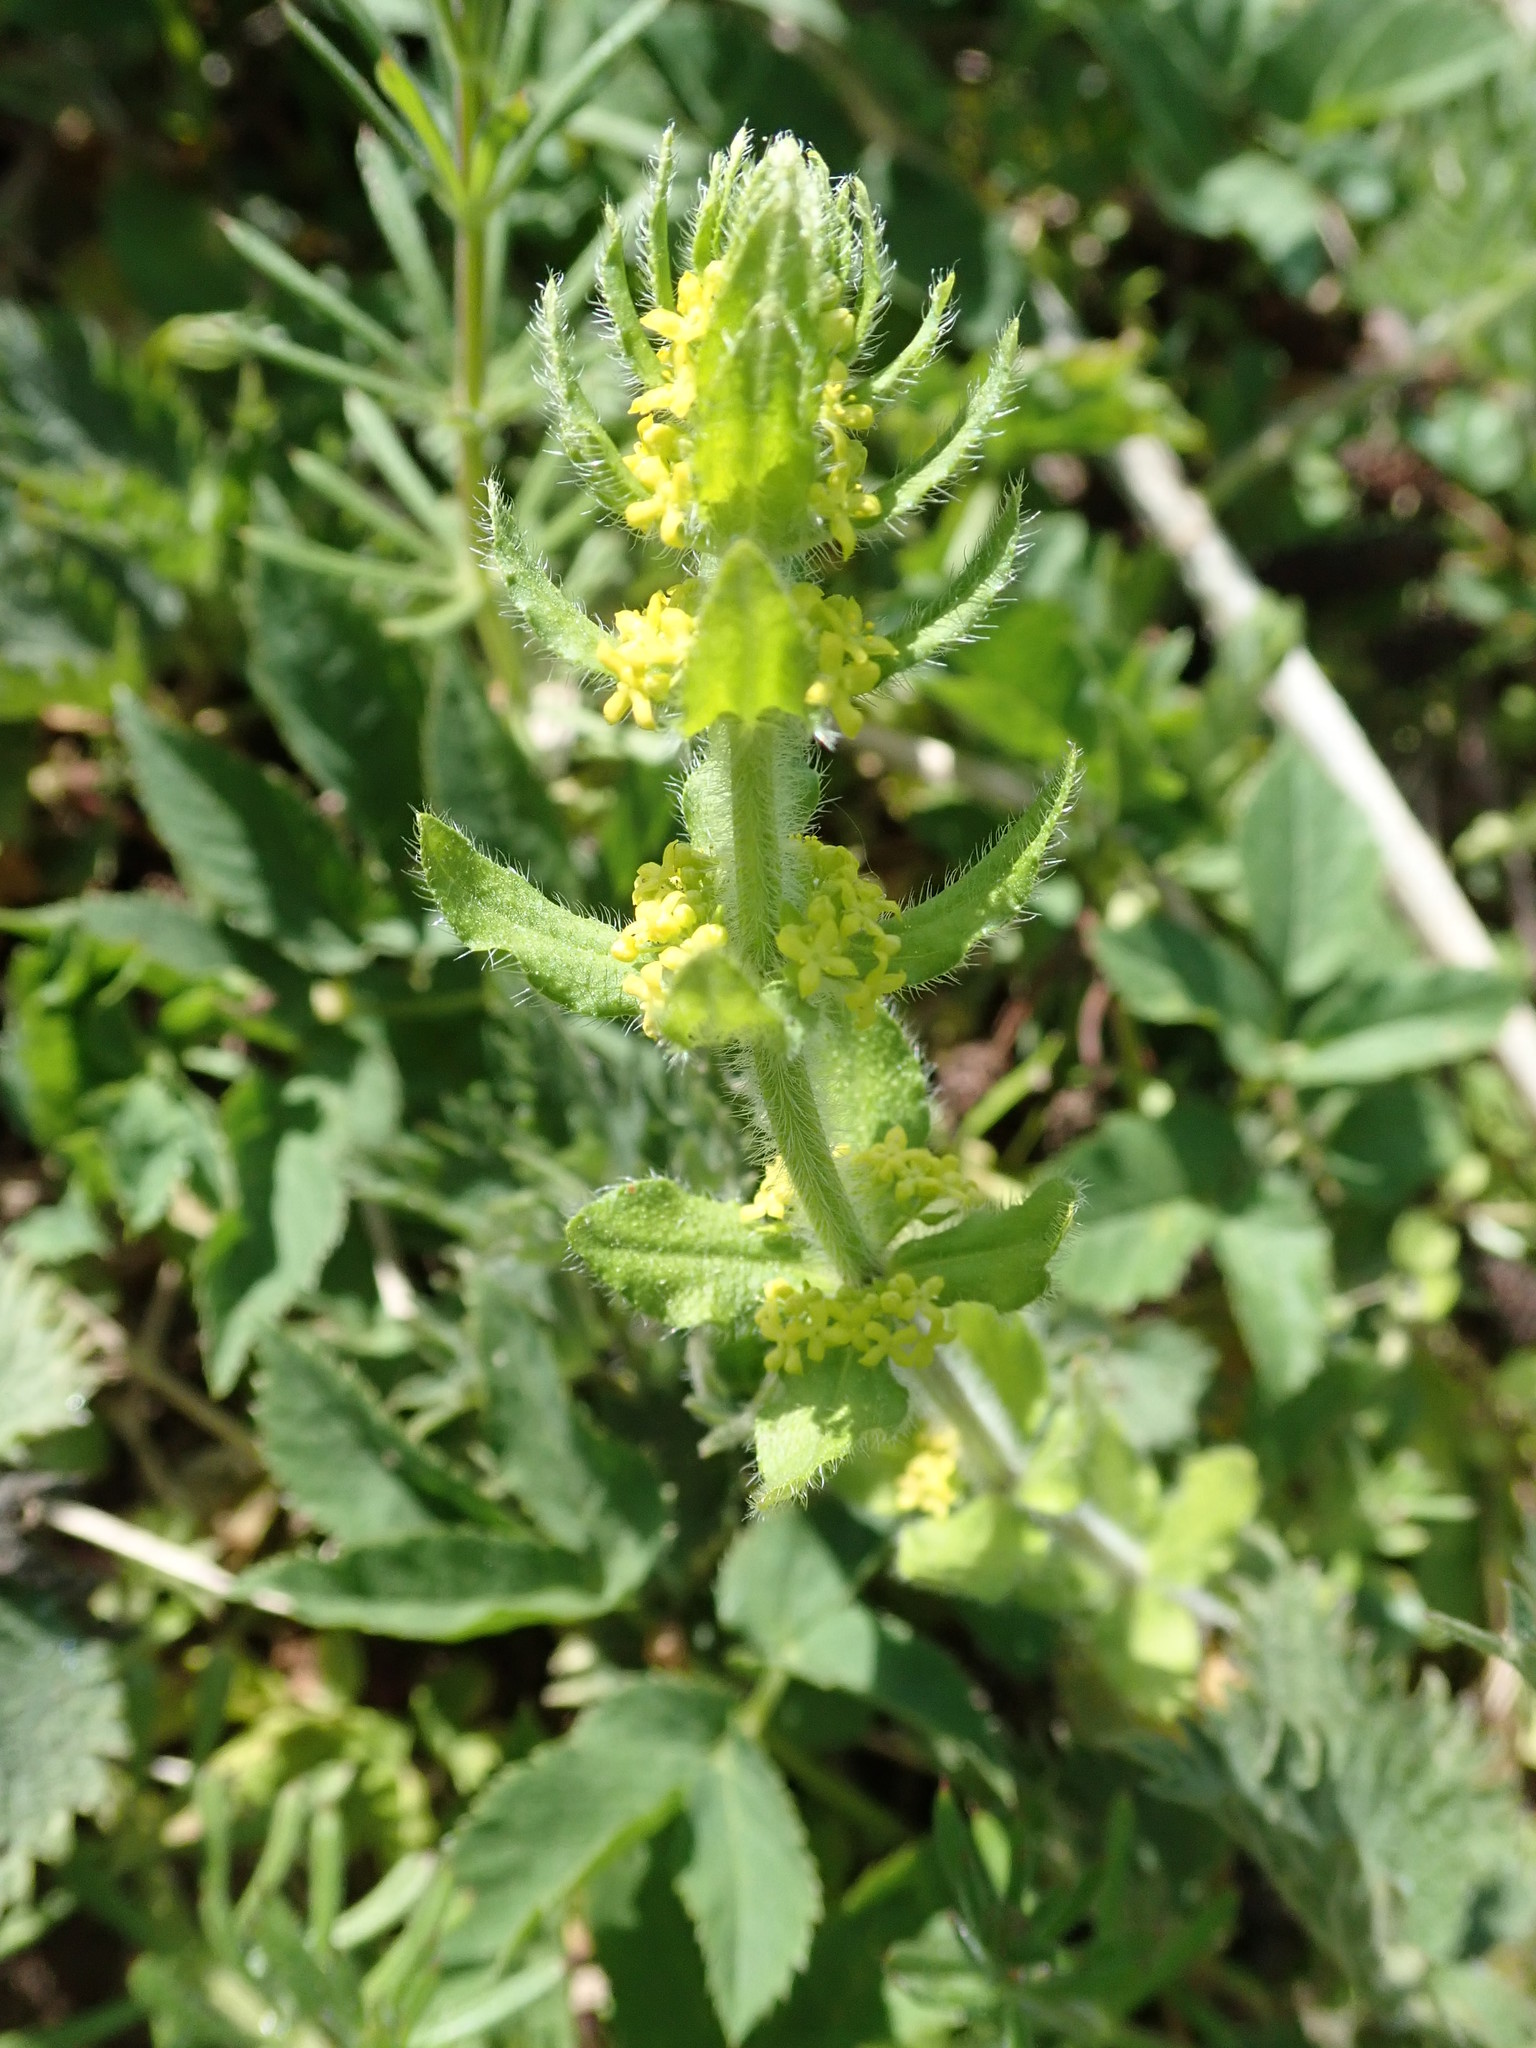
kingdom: Plantae
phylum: Tracheophyta
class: Magnoliopsida
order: Gentianales
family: Rubiaceae
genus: Cruciata
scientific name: Cruciata laevipes
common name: Crosswort
